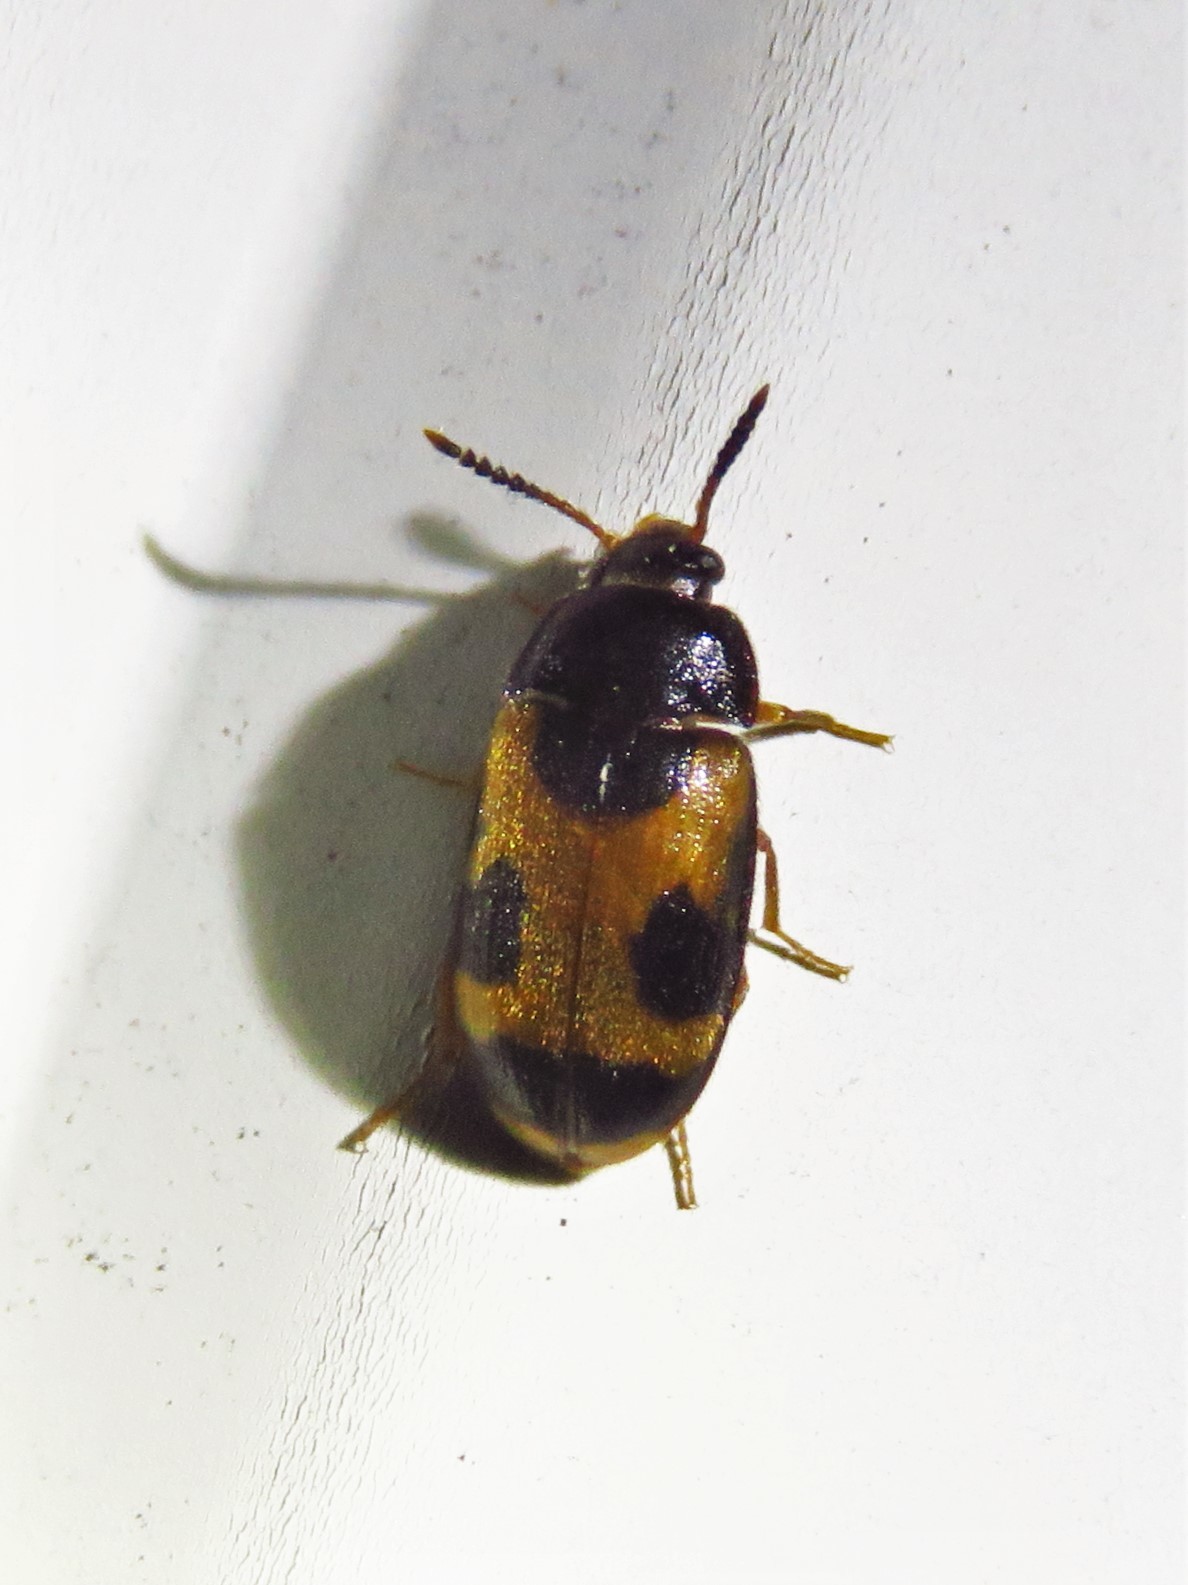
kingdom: Animalia
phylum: Arthropoda
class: Insecta
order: Coleoptera
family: Mycetophagidae
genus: Mycetophagus
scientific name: Mycetophagus punctatus
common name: Hairy fungus beetle
